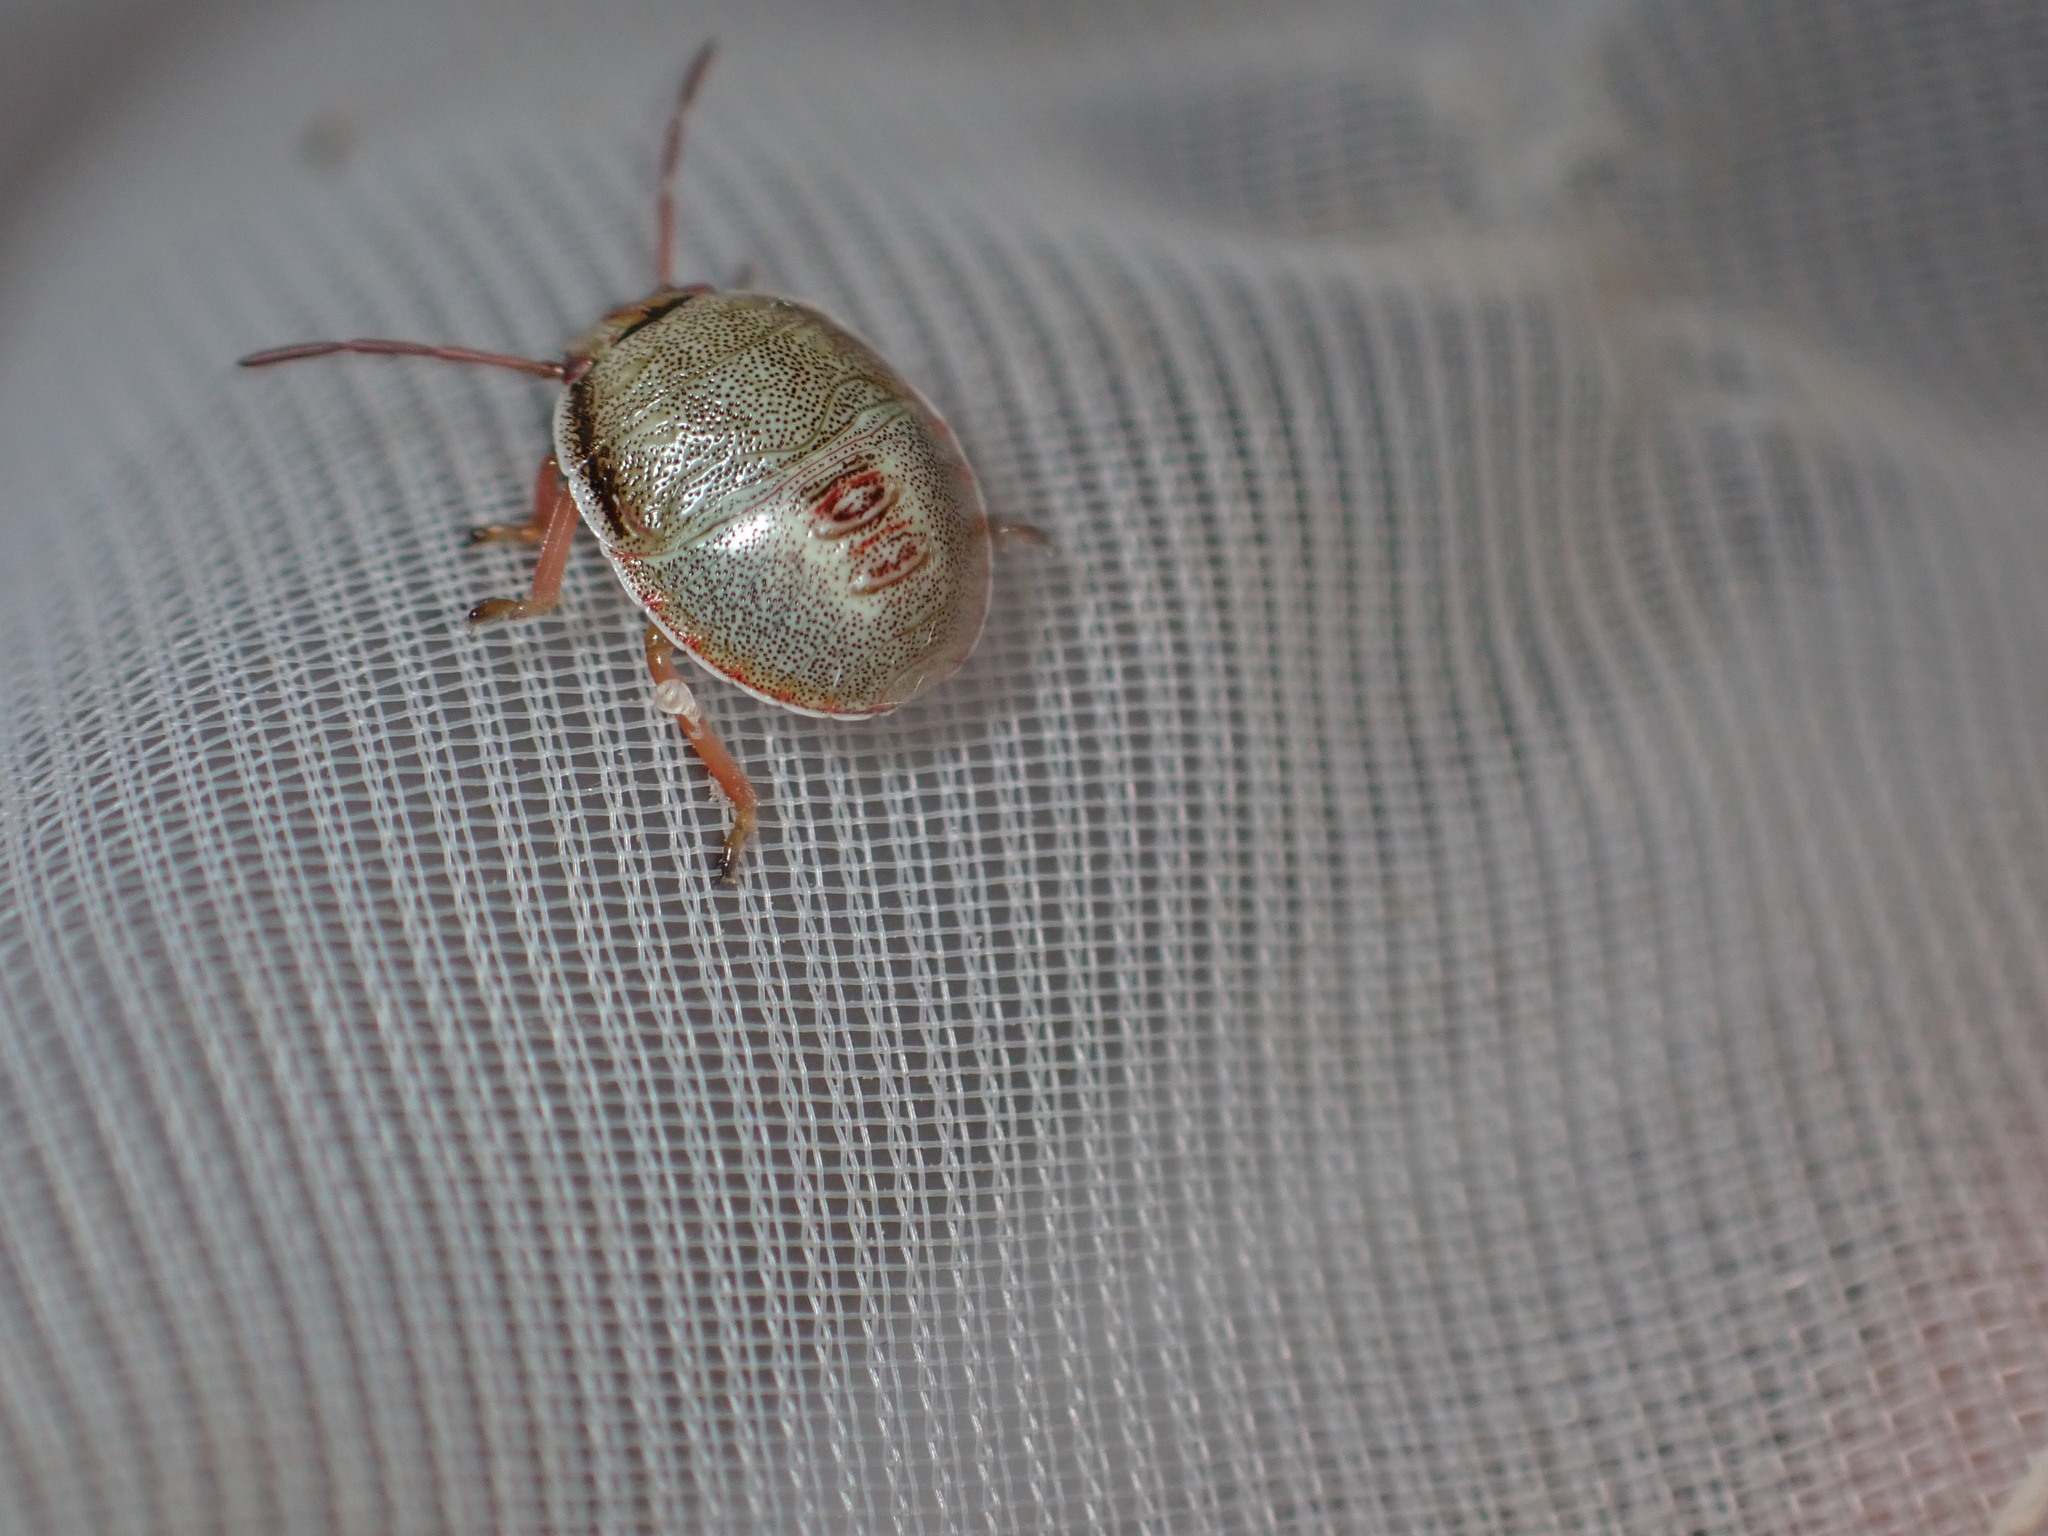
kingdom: Animalia
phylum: Arthropoda
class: Insecta
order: Hemiptera
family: Pentatomidae
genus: Piezodorus
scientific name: Piezodorus lituratus
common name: Stink bug
